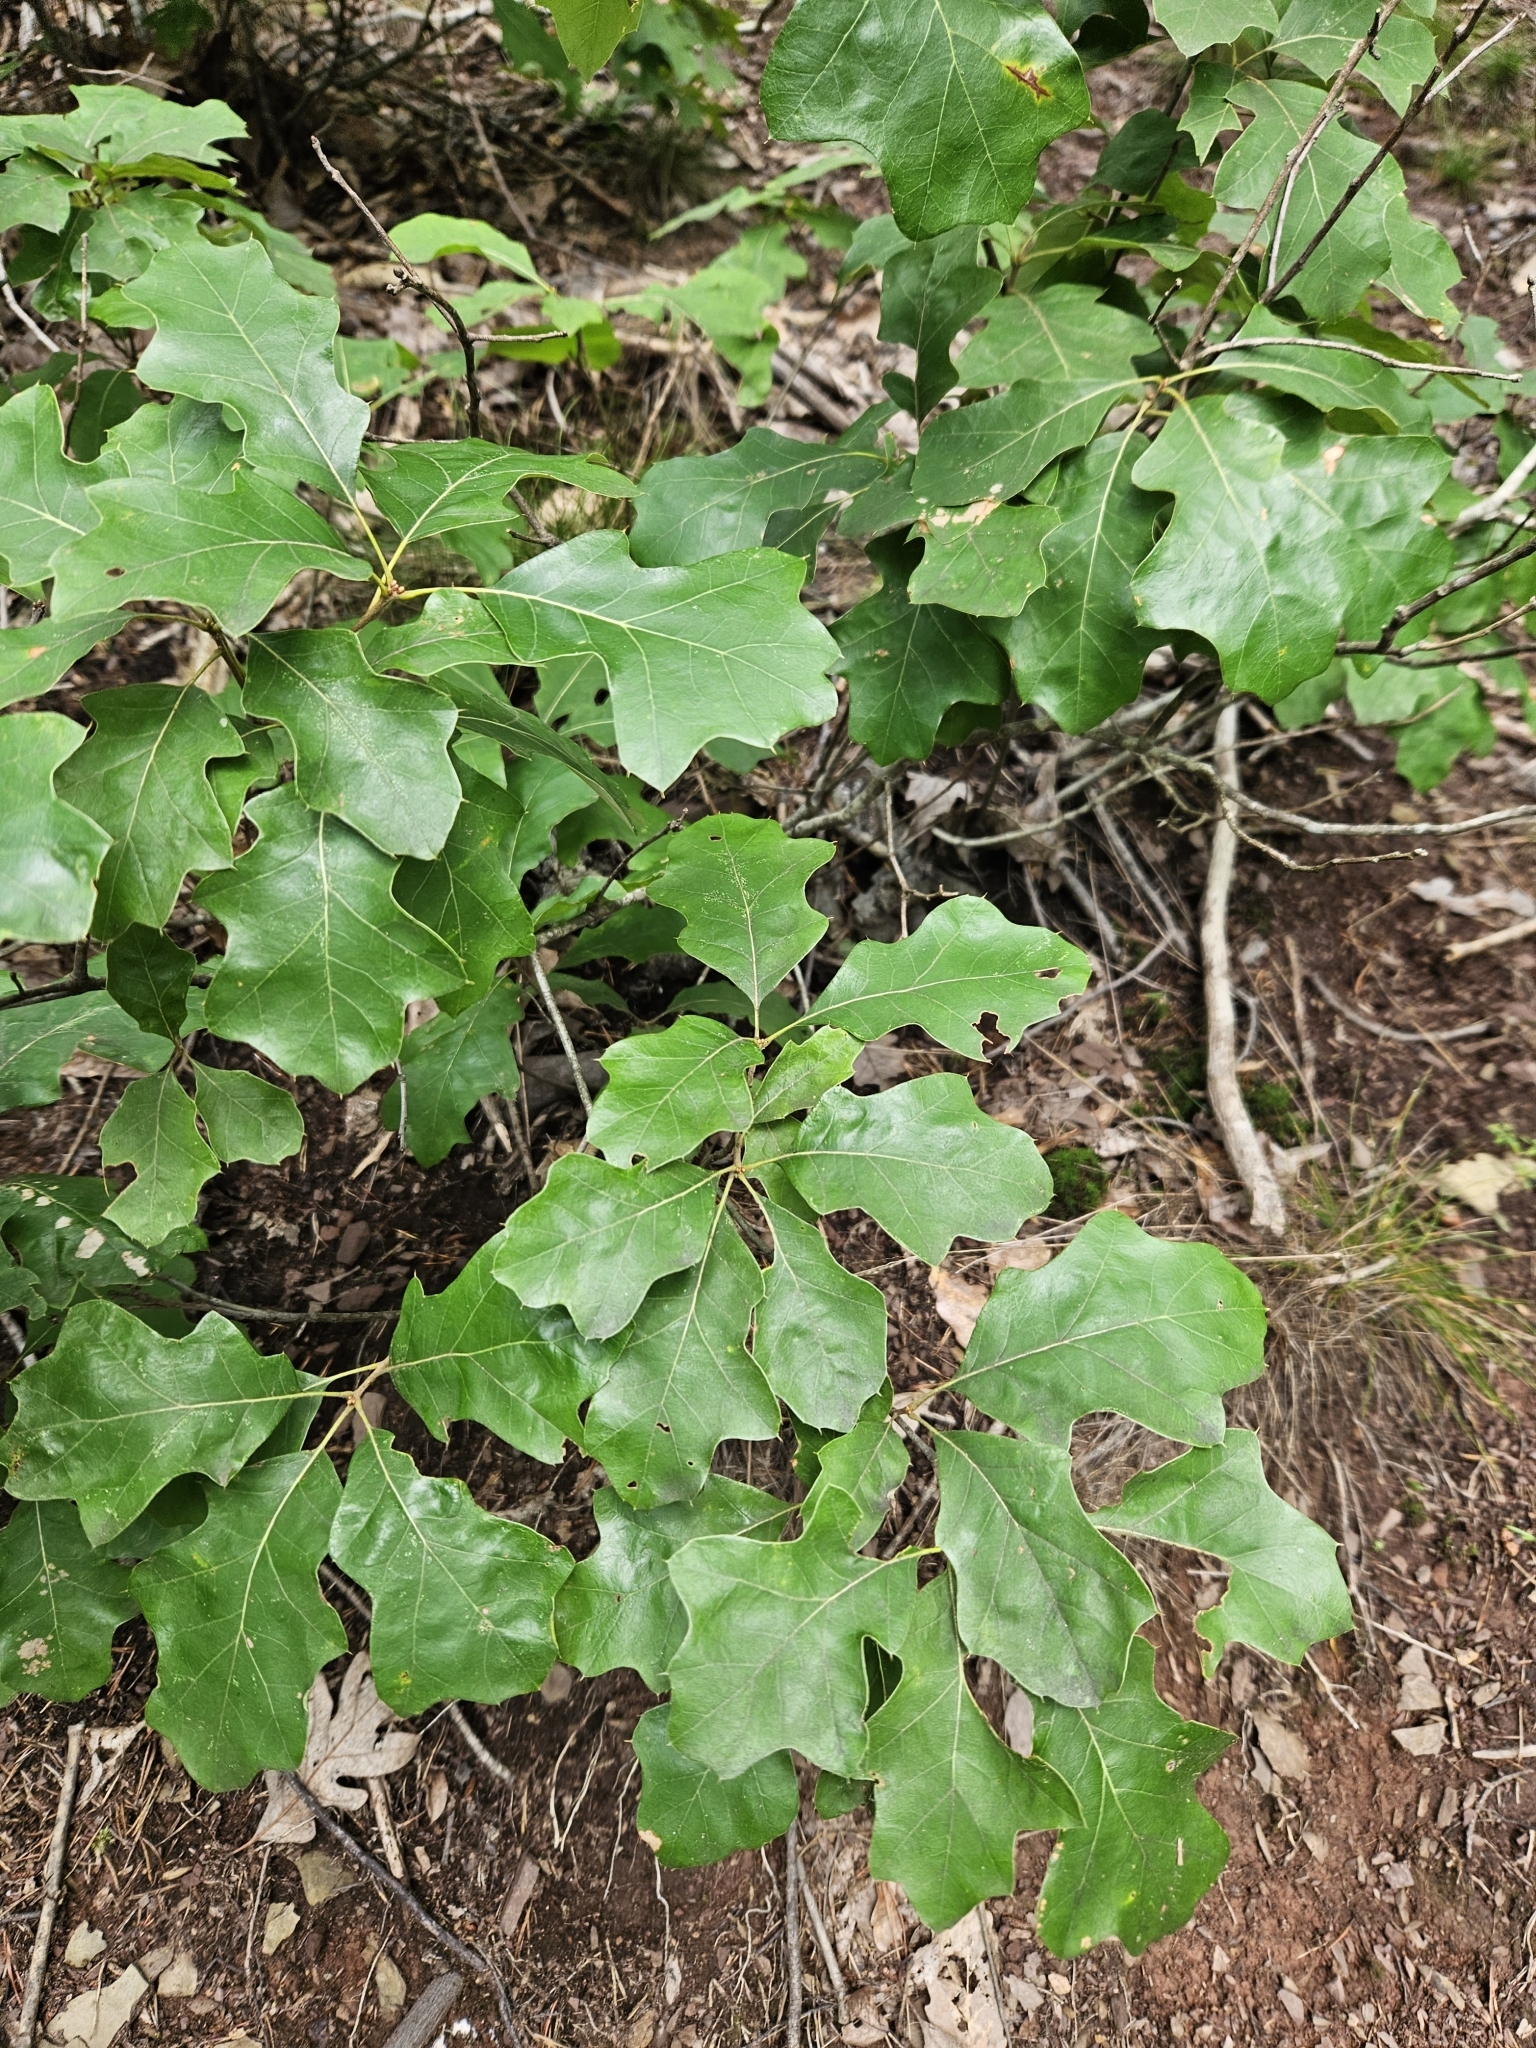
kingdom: Plantae
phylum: Tracheophyta
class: Magnoliopsida
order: Fagales
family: Fagaceae
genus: Quercus
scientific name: Quercus ilicifolia
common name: Bear oak
